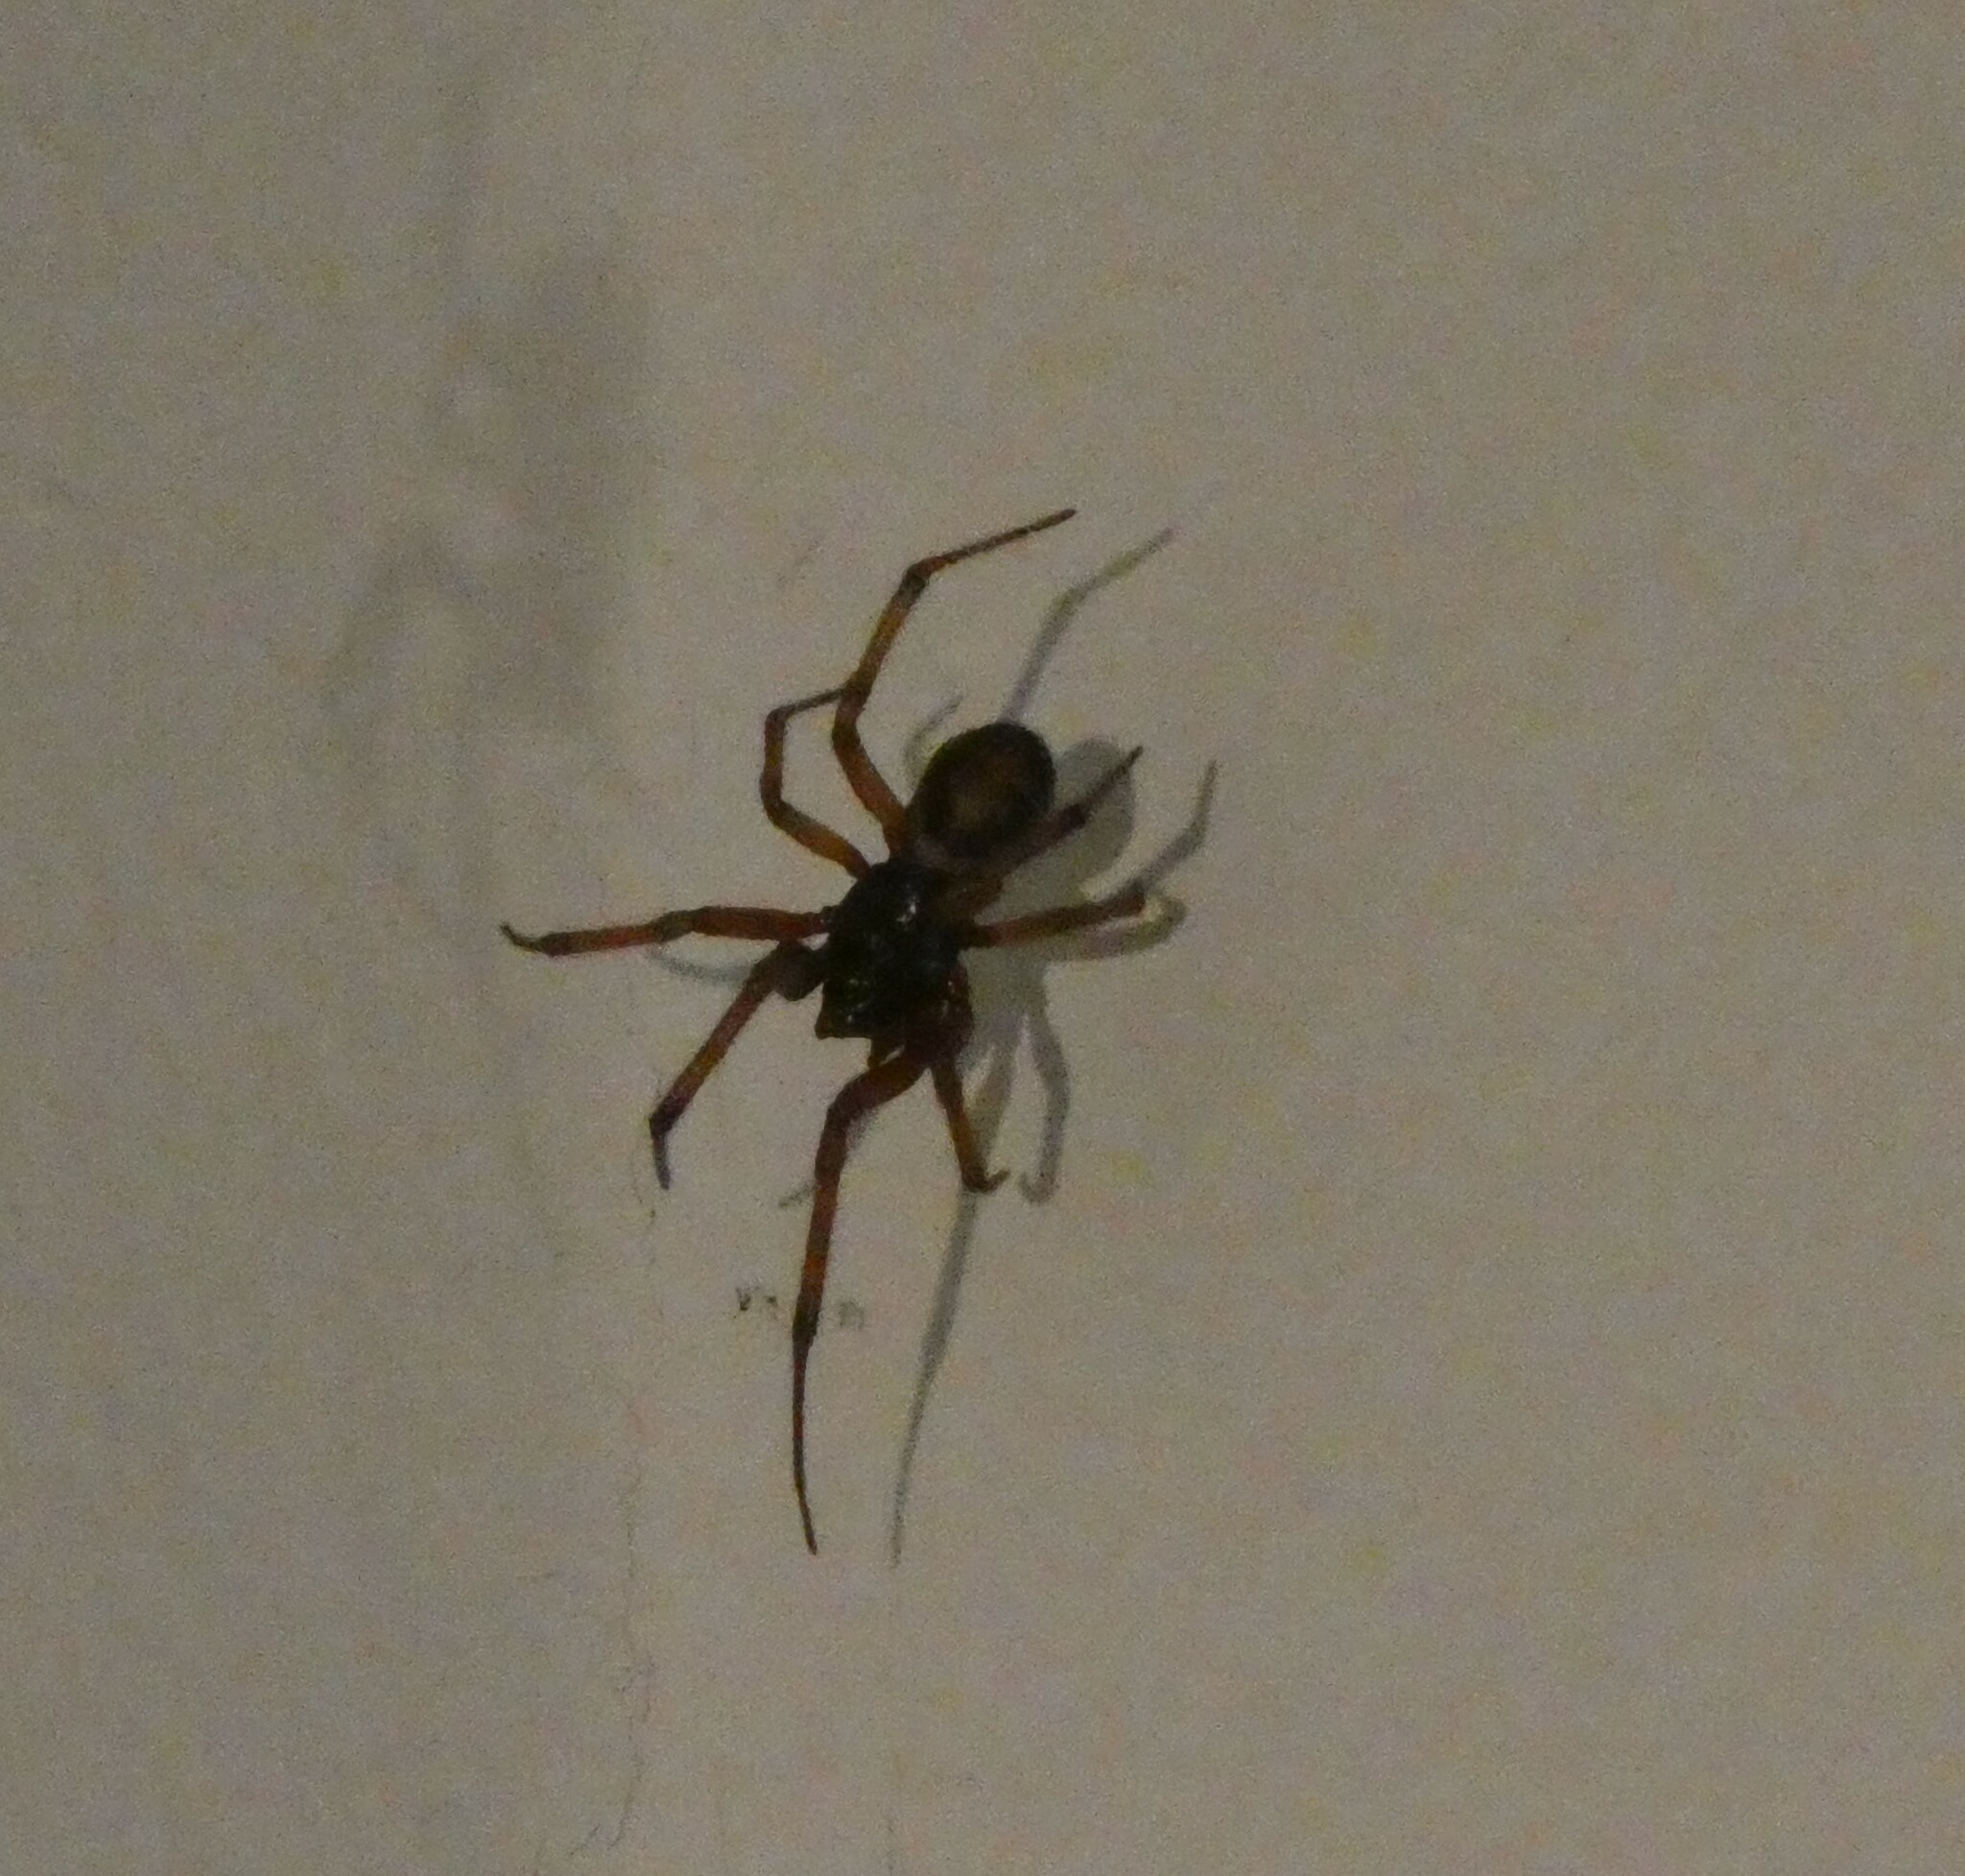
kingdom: Animalia
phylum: Arthropoda
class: Arachnida
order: Araneae
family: Theridiidae
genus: Steatoda
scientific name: Steatoda nobilis
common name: Cobweb weaver
